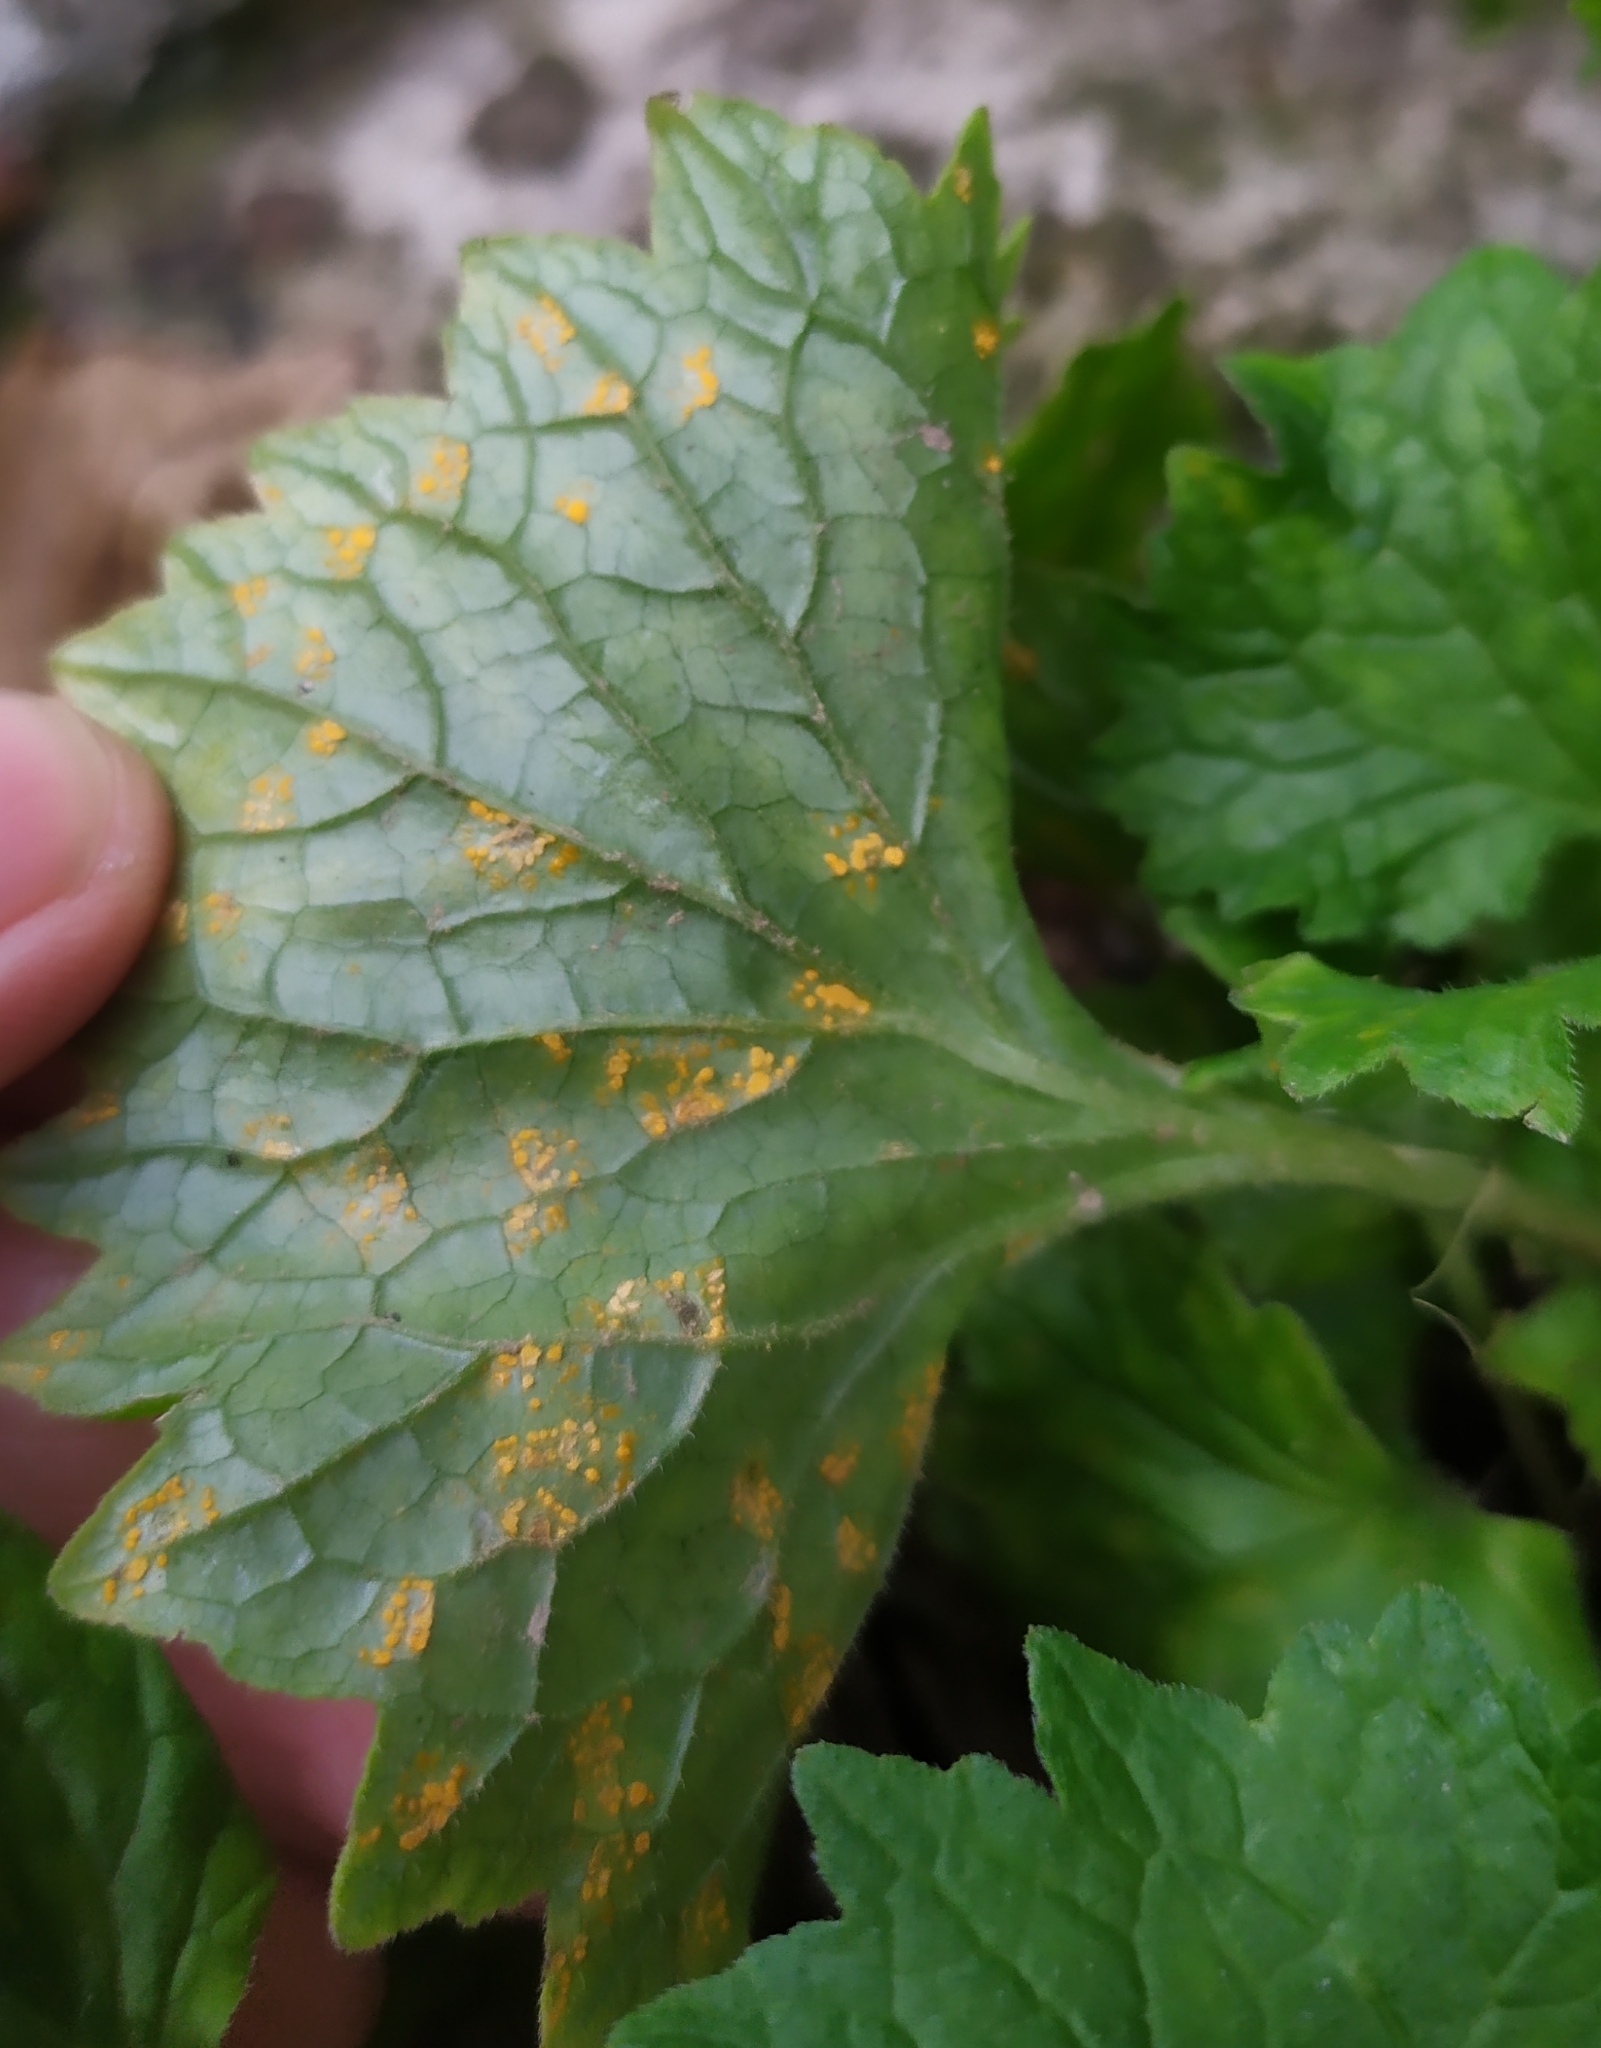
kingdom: Fungi
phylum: Basidiomycota
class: Pucciniomycetes
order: Pucciniales
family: Coleosporiaceae
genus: Coleosporium
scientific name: Coleosporium campanulae
